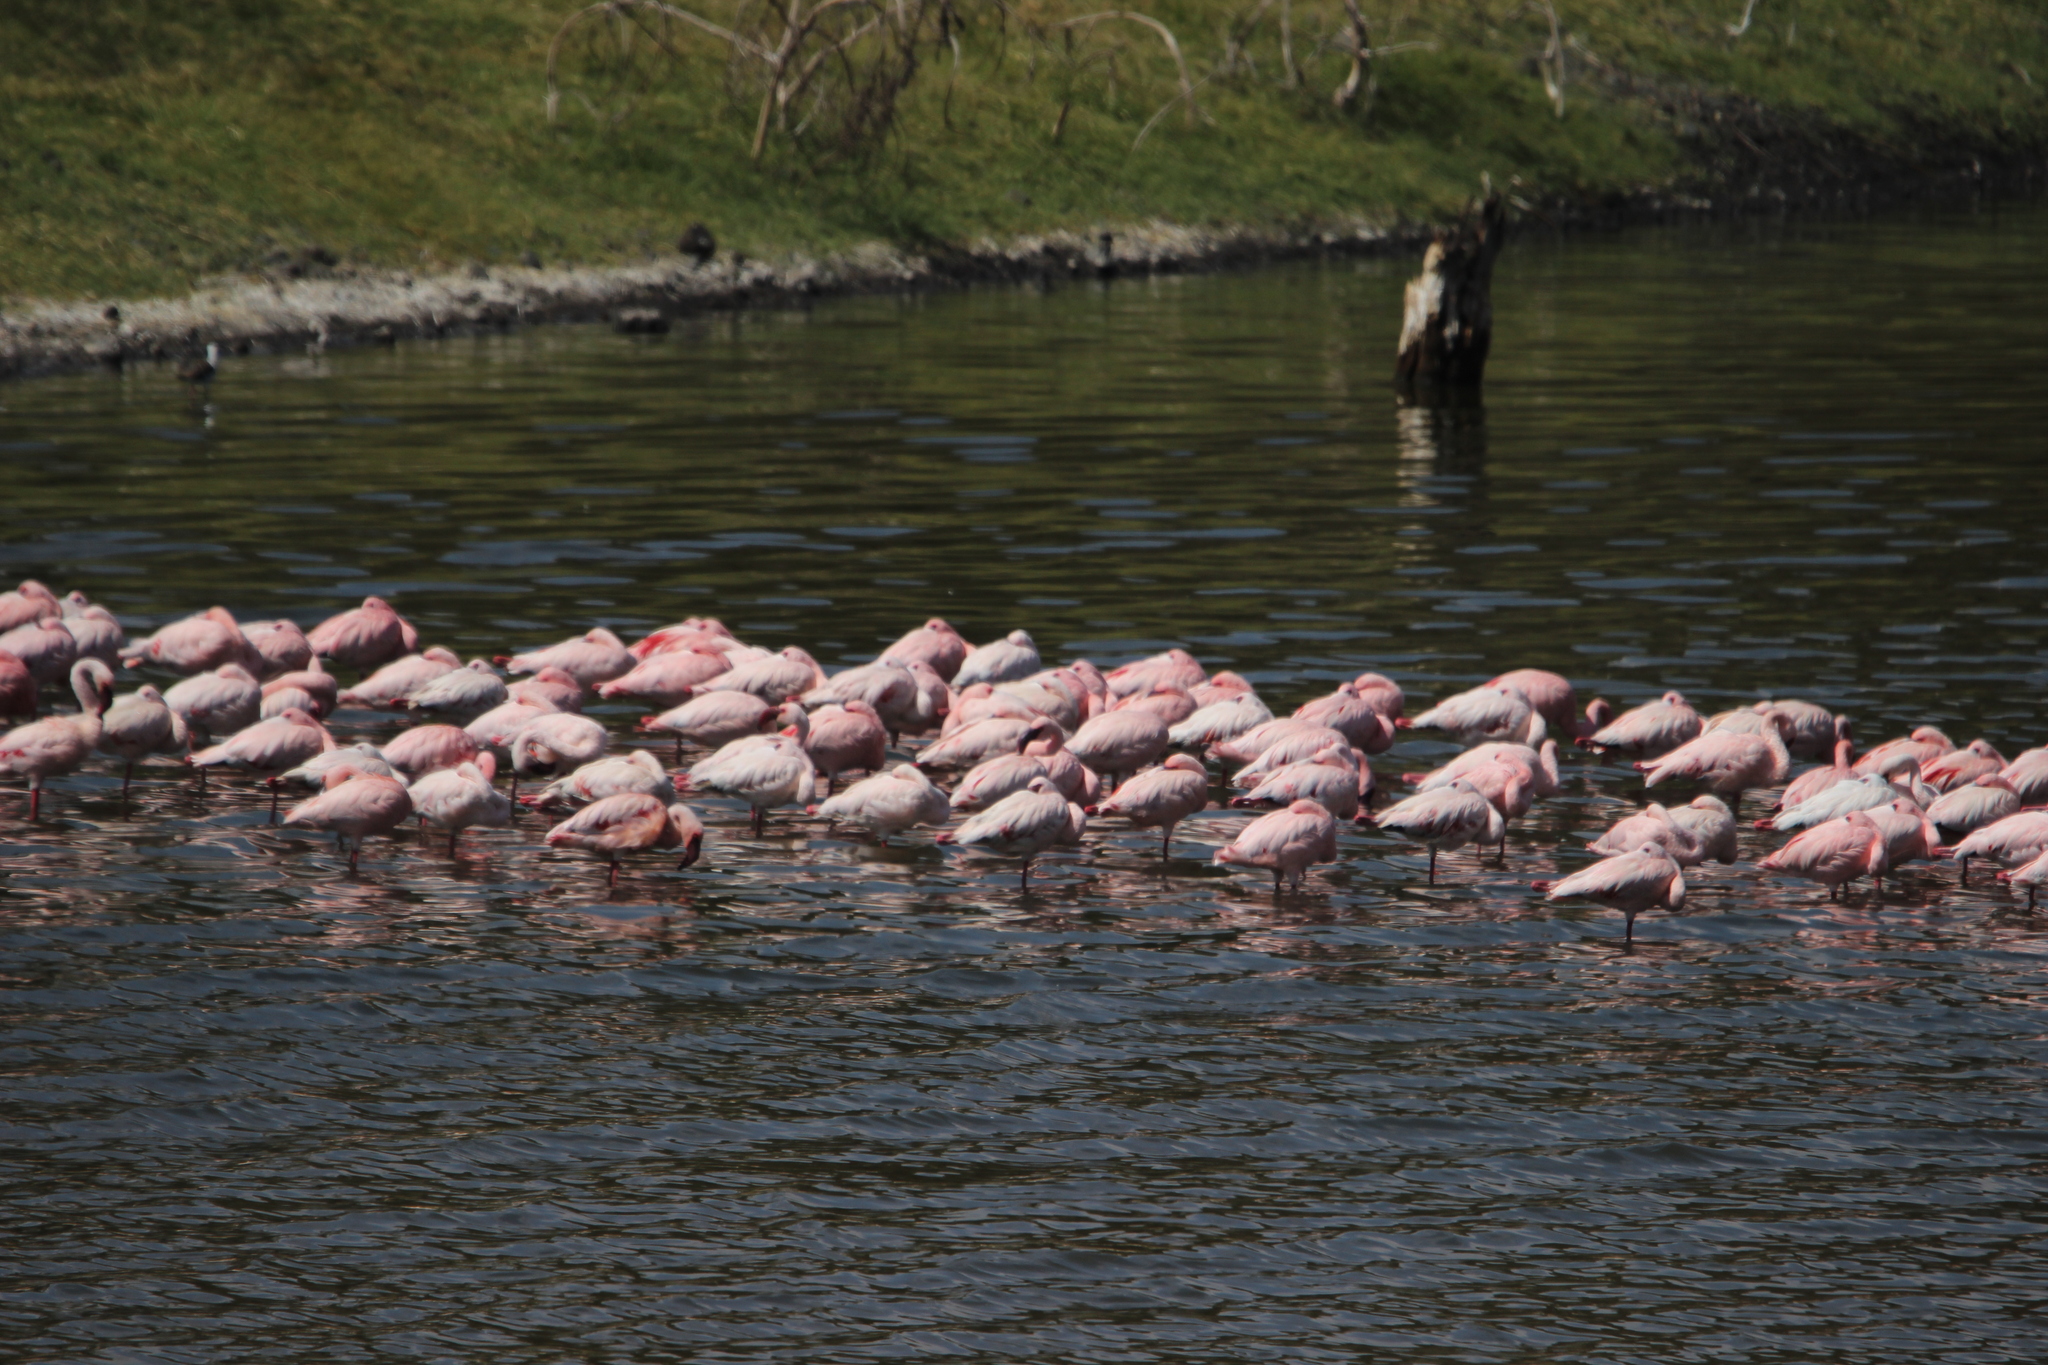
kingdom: Animalia
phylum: Chordata
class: Aves
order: Phoenicopteriformes
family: Phoenicopteridae
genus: Phoeniconaias
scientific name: Phoeniconaias minor
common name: Lesser flamingo
